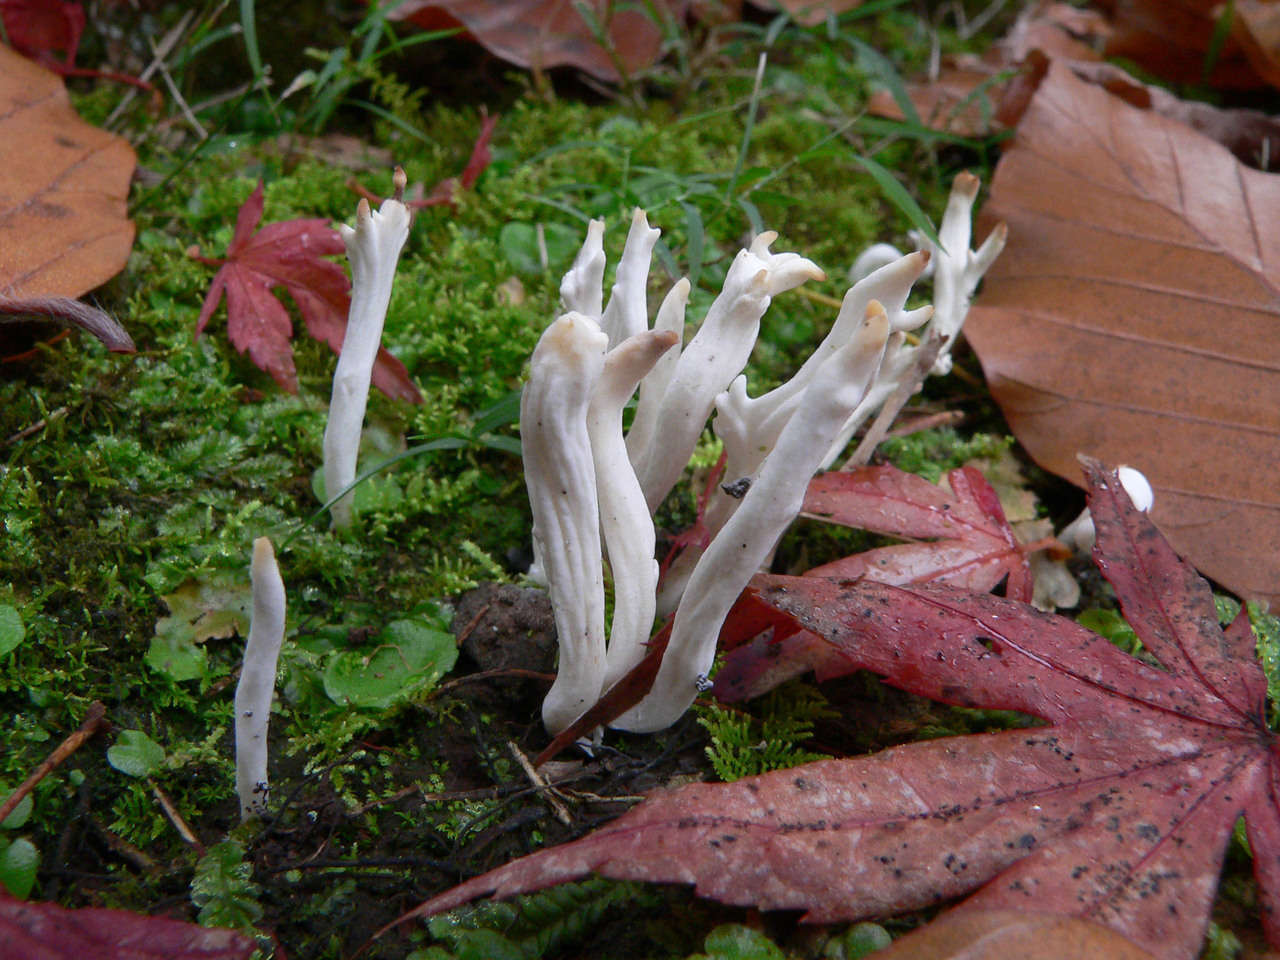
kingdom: Fungi
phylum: Basidiomycota
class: Agaricomycetes
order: Cantharellales
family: Hydnaceae
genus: Clavulina
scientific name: Clavulina rugosa
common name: Wrinkled club
